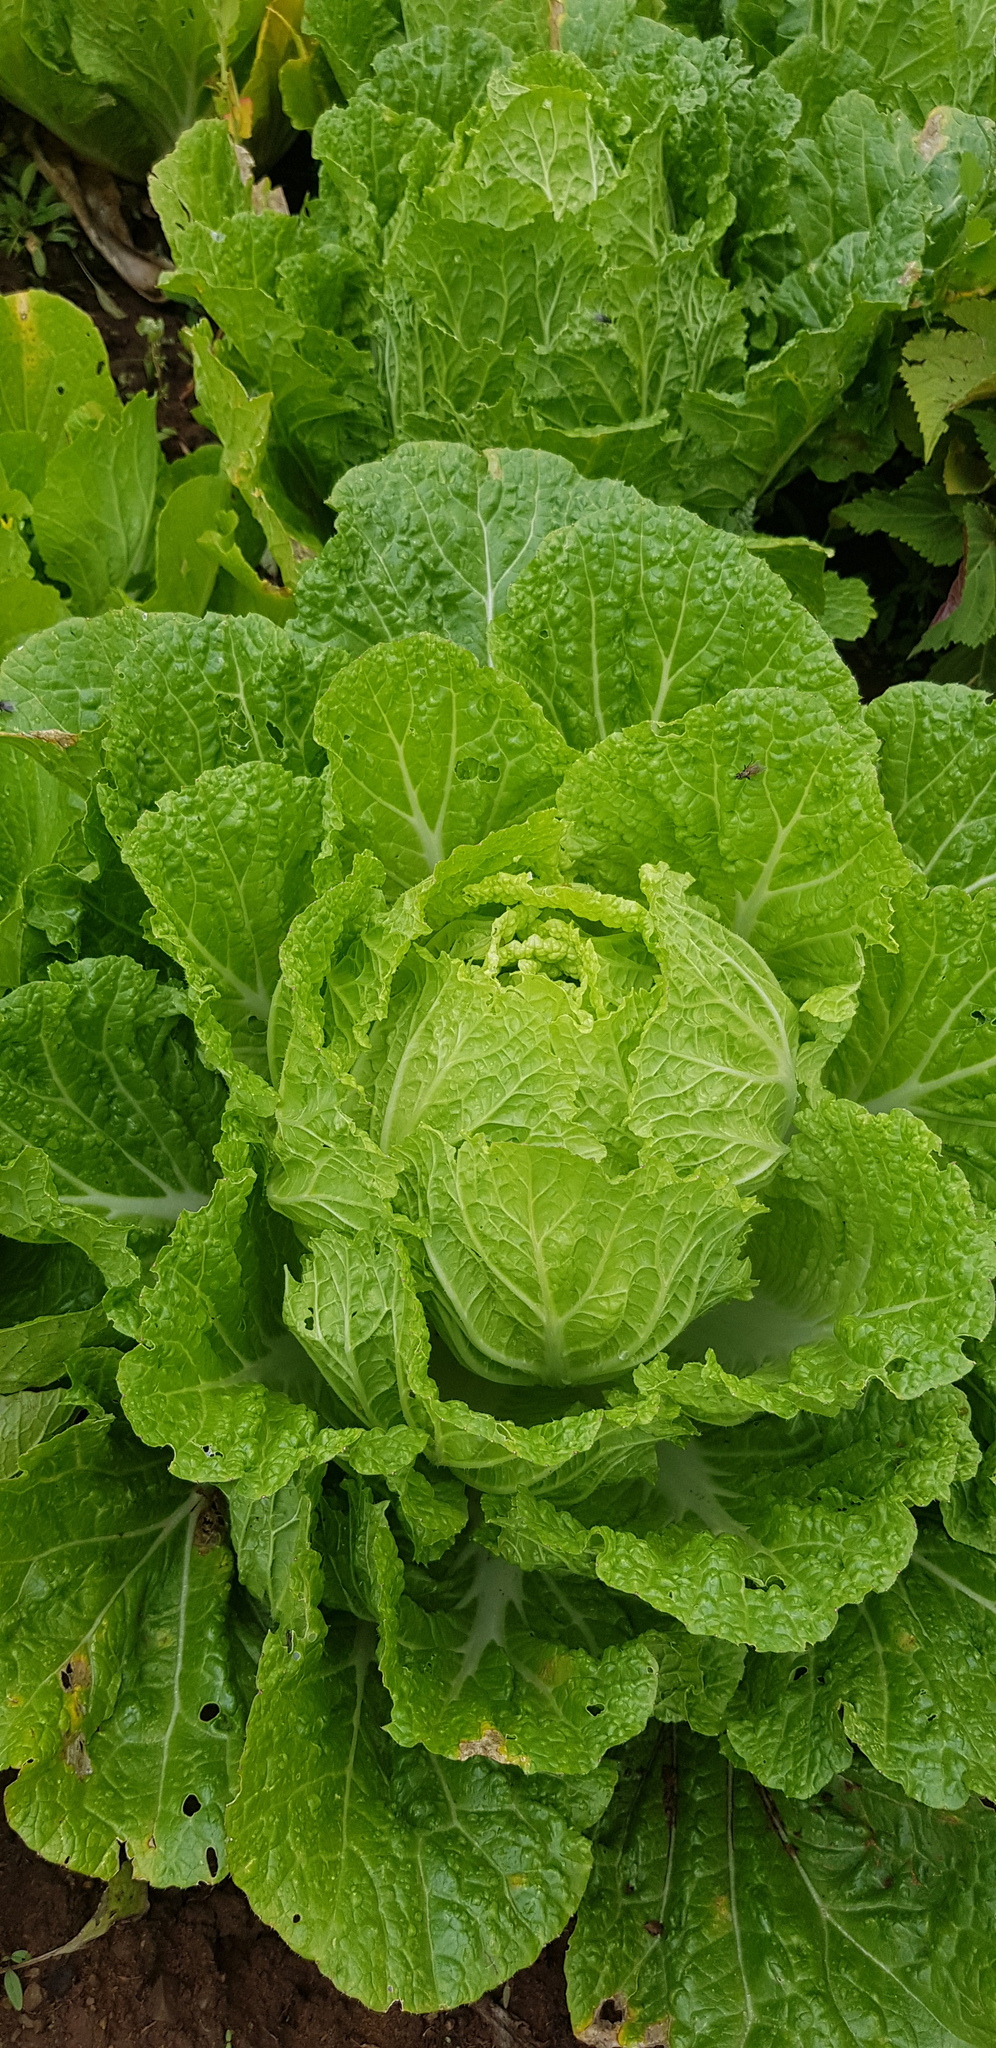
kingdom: Plantae
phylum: Tracheophyta
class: Magnoliopsida
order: Brassicales
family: Brassicaceae
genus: Brassica
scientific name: Brassica oleracea
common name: Cabbage
